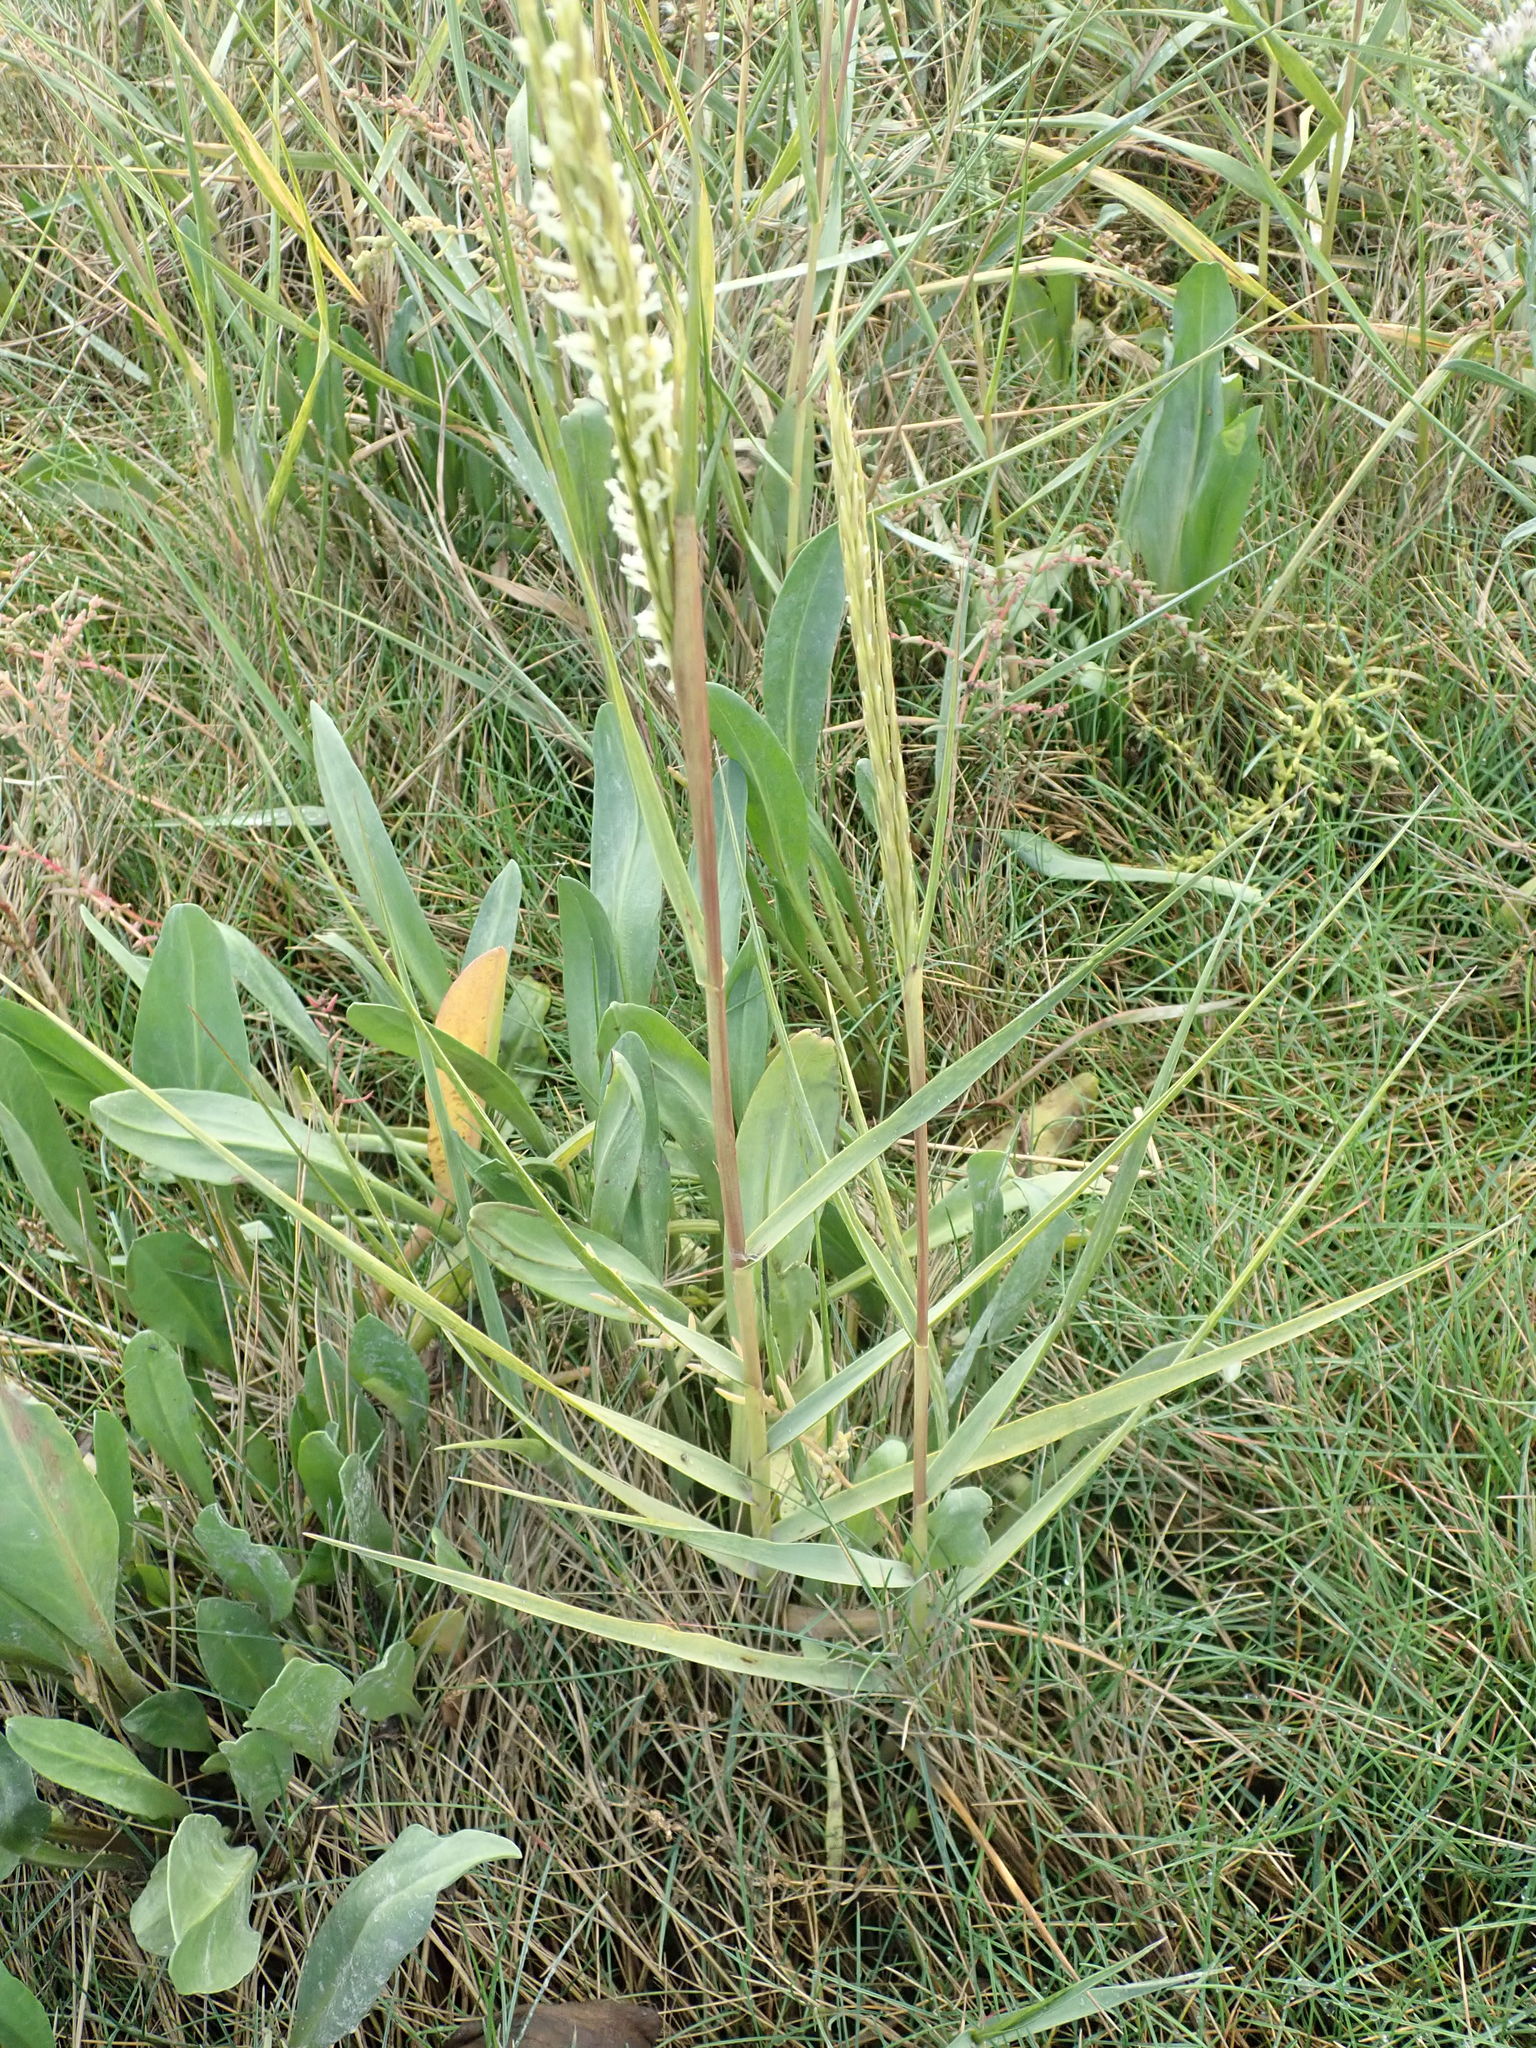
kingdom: Plantae
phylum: Tracheophyta
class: Liliopsida
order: Poales
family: Poaceae
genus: Sporobolus
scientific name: Sporobolus anglicus
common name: English cordgrass
